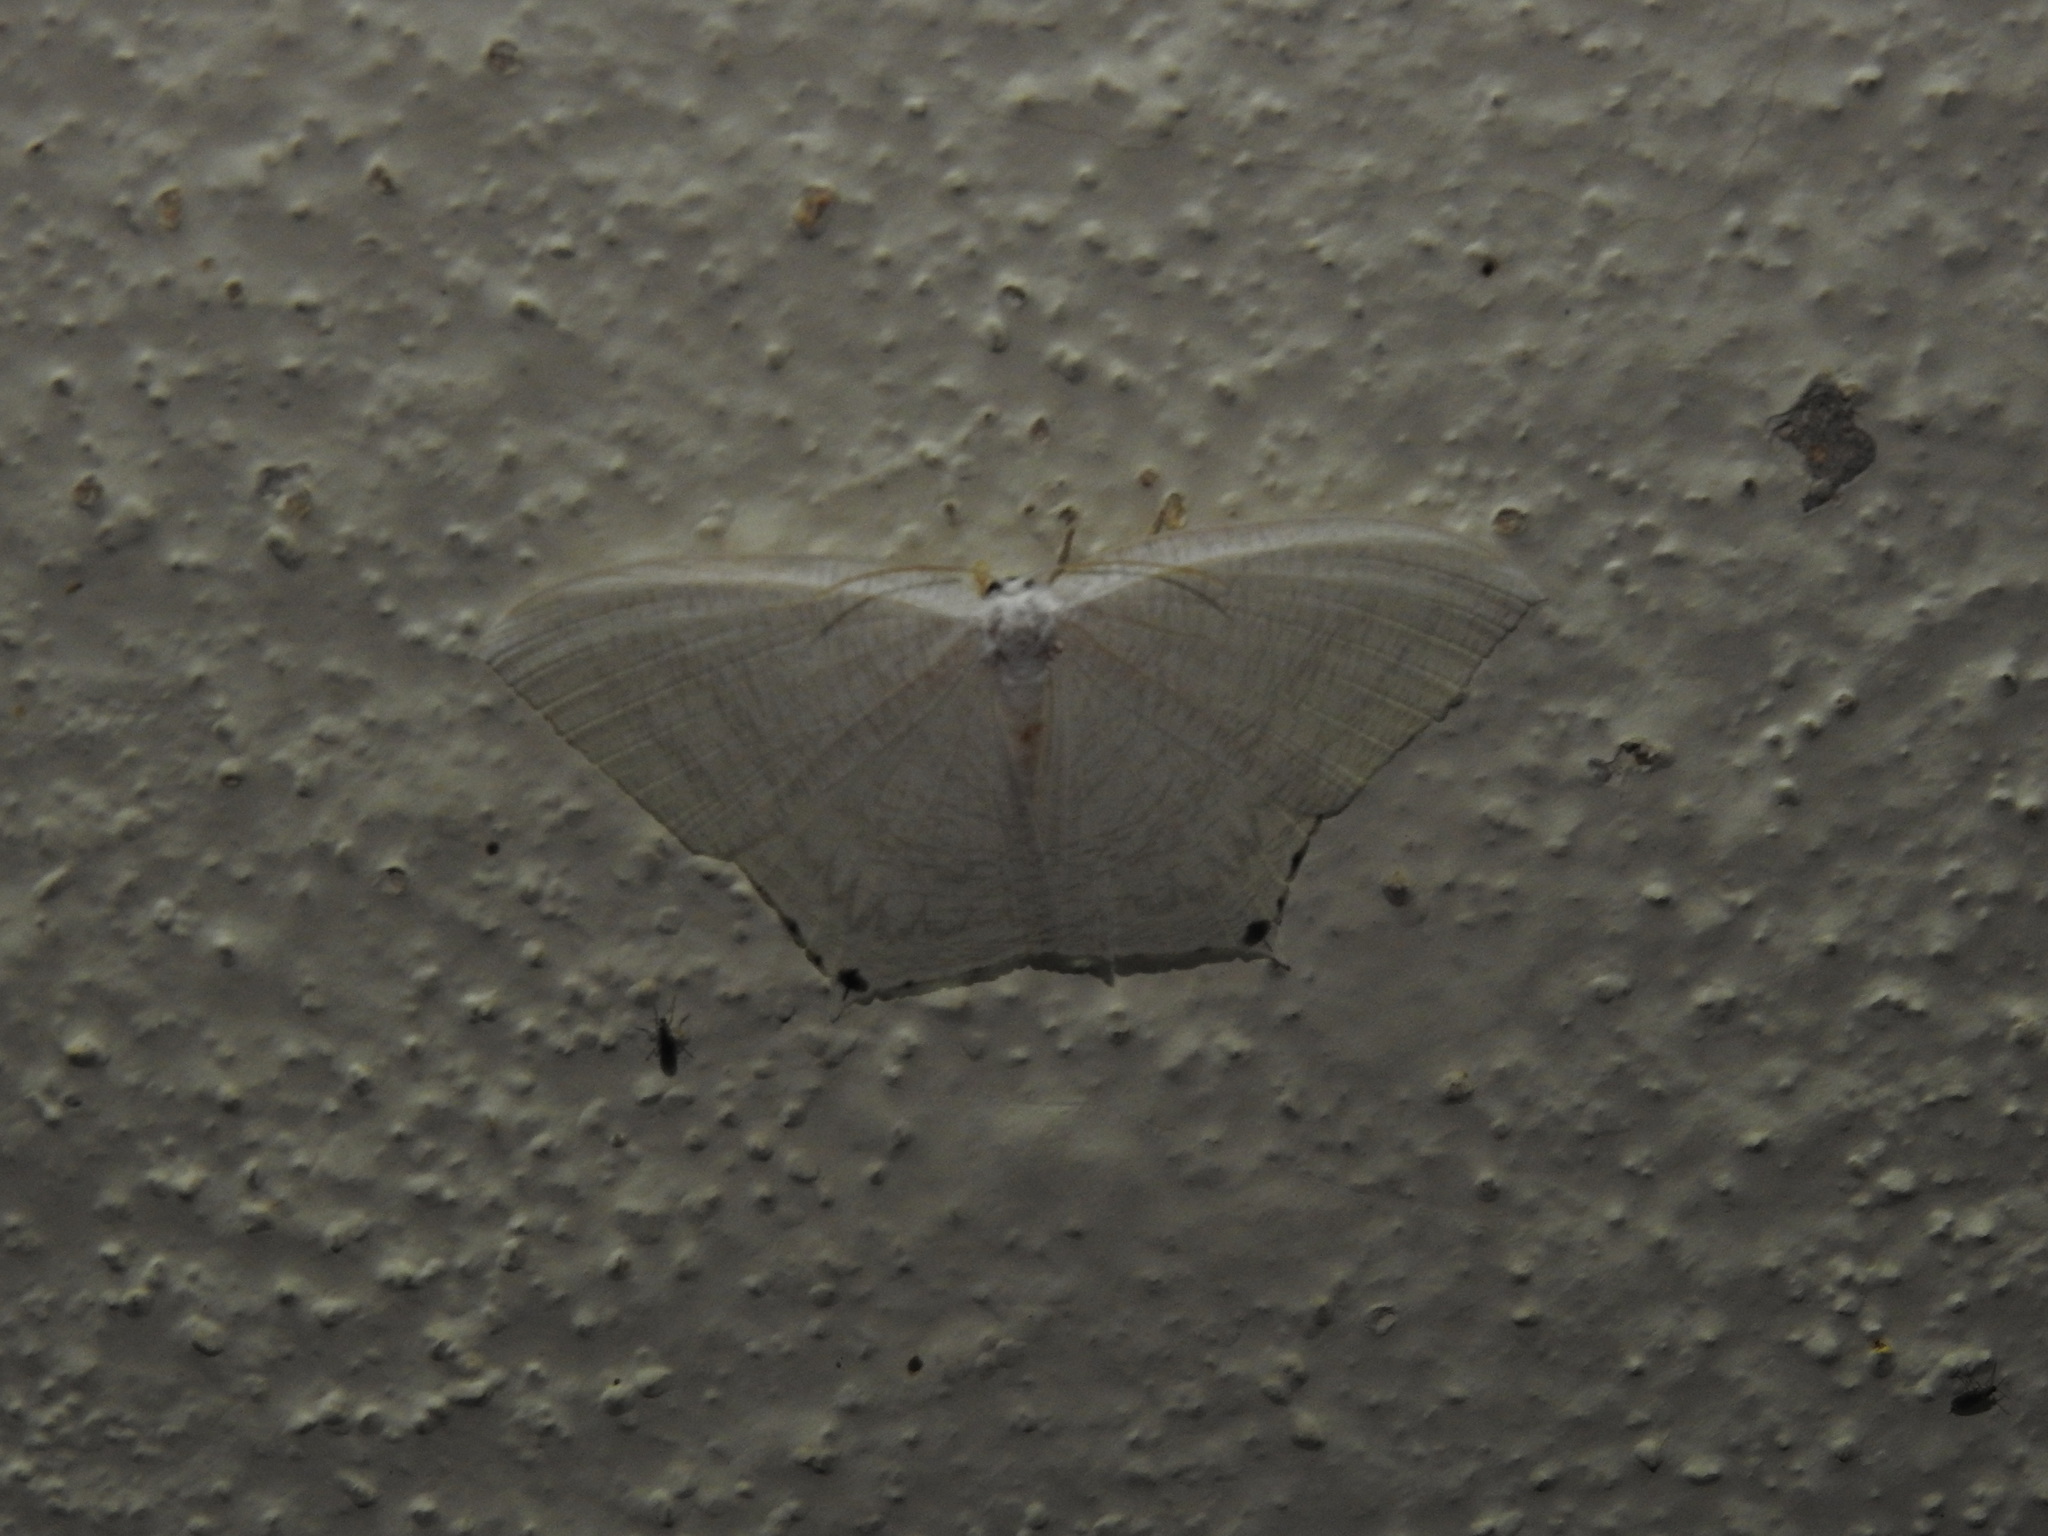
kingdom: Animalia
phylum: Arthropoda
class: Insecta
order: Lepidoptera
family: Uraniidae
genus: Micronia
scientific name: Micronia aculeata
